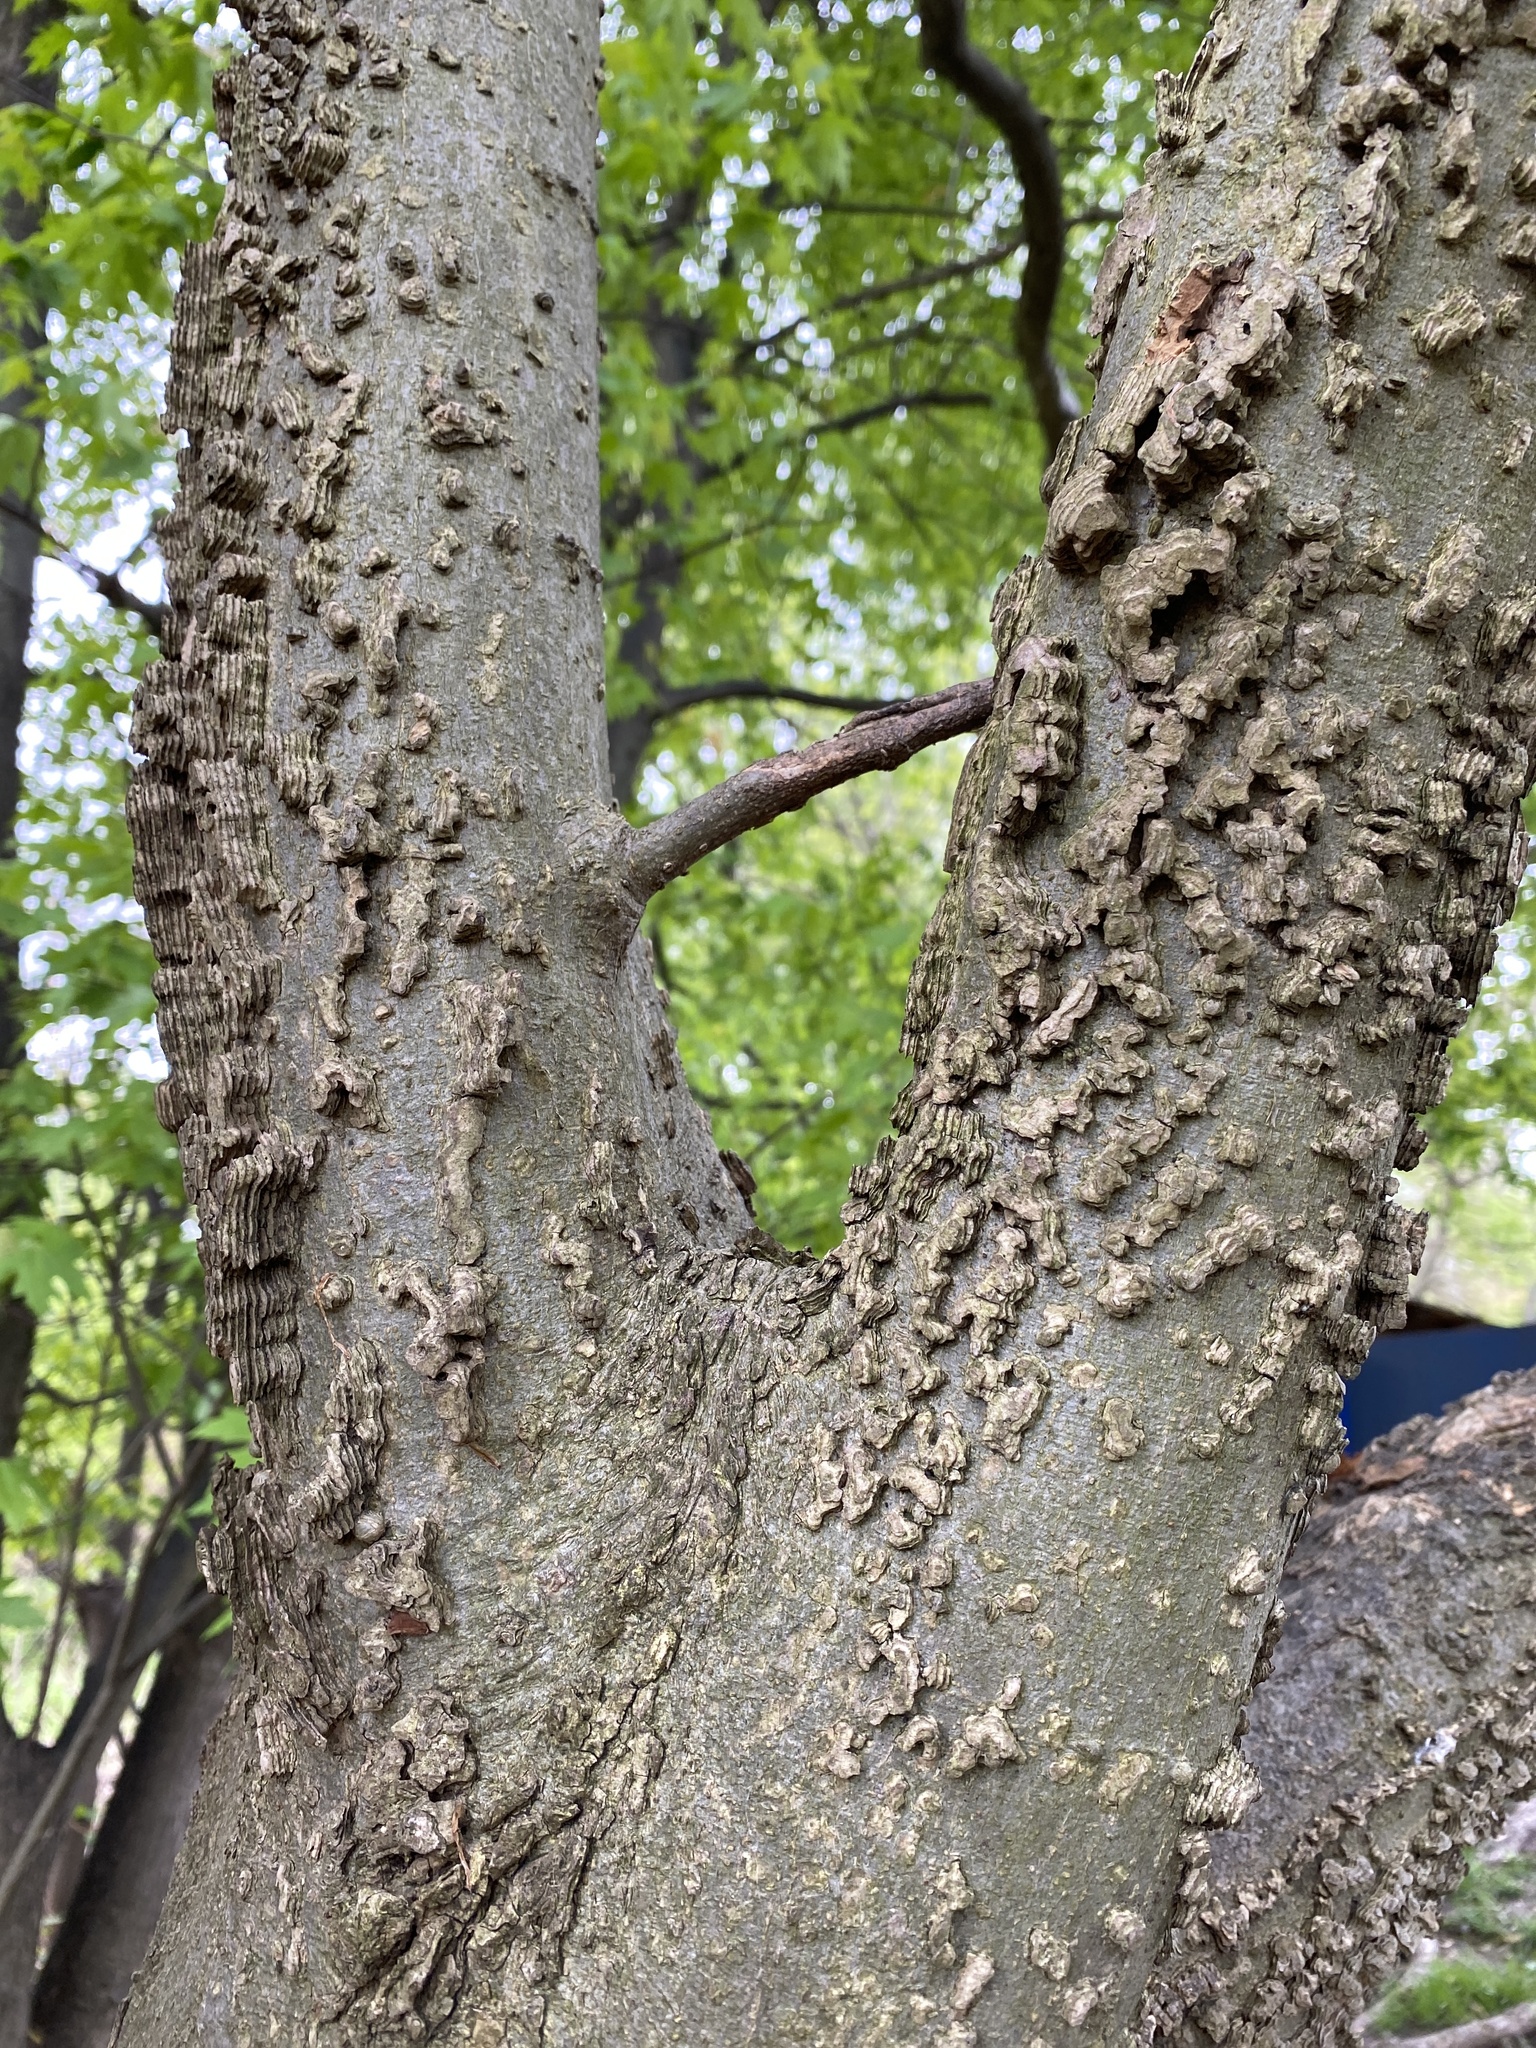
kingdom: Plantae
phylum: Tracheophyta
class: Magnoliopsida
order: Rosales
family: Cannabaceae
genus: Celtis
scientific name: Celtis occidentalis
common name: Common hackberry
